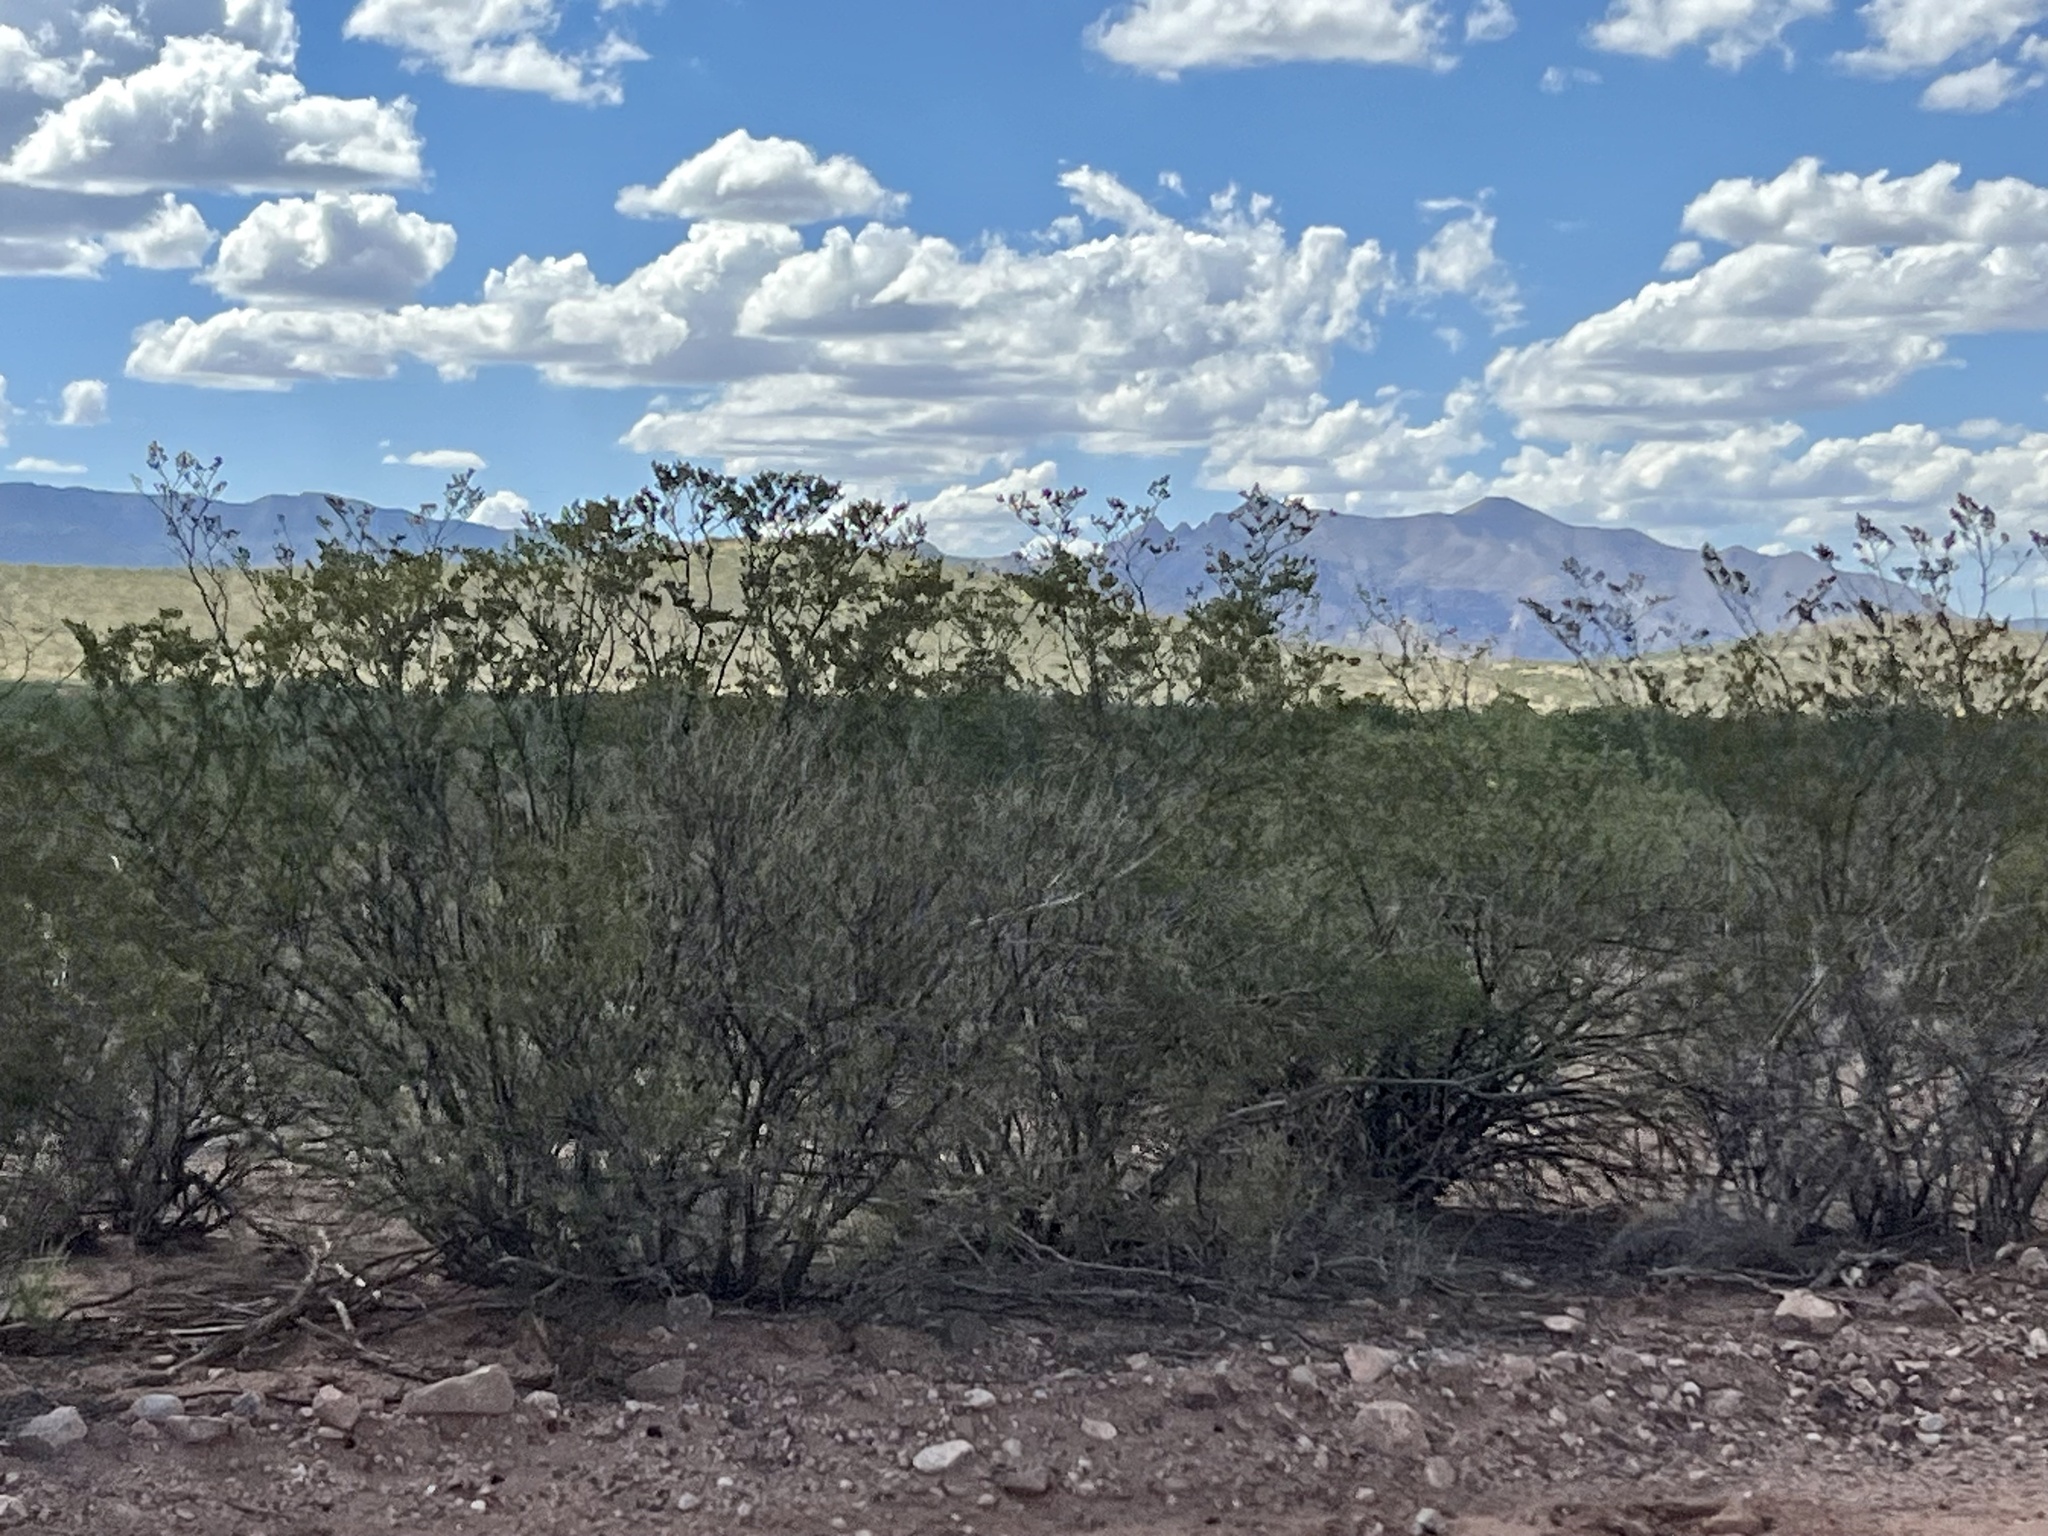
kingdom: Plantae
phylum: Tracheophyta
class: Magnoliopsida
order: Zygophyllales
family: Zygophyllaceae
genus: Larrea
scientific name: Larrea tridentata
